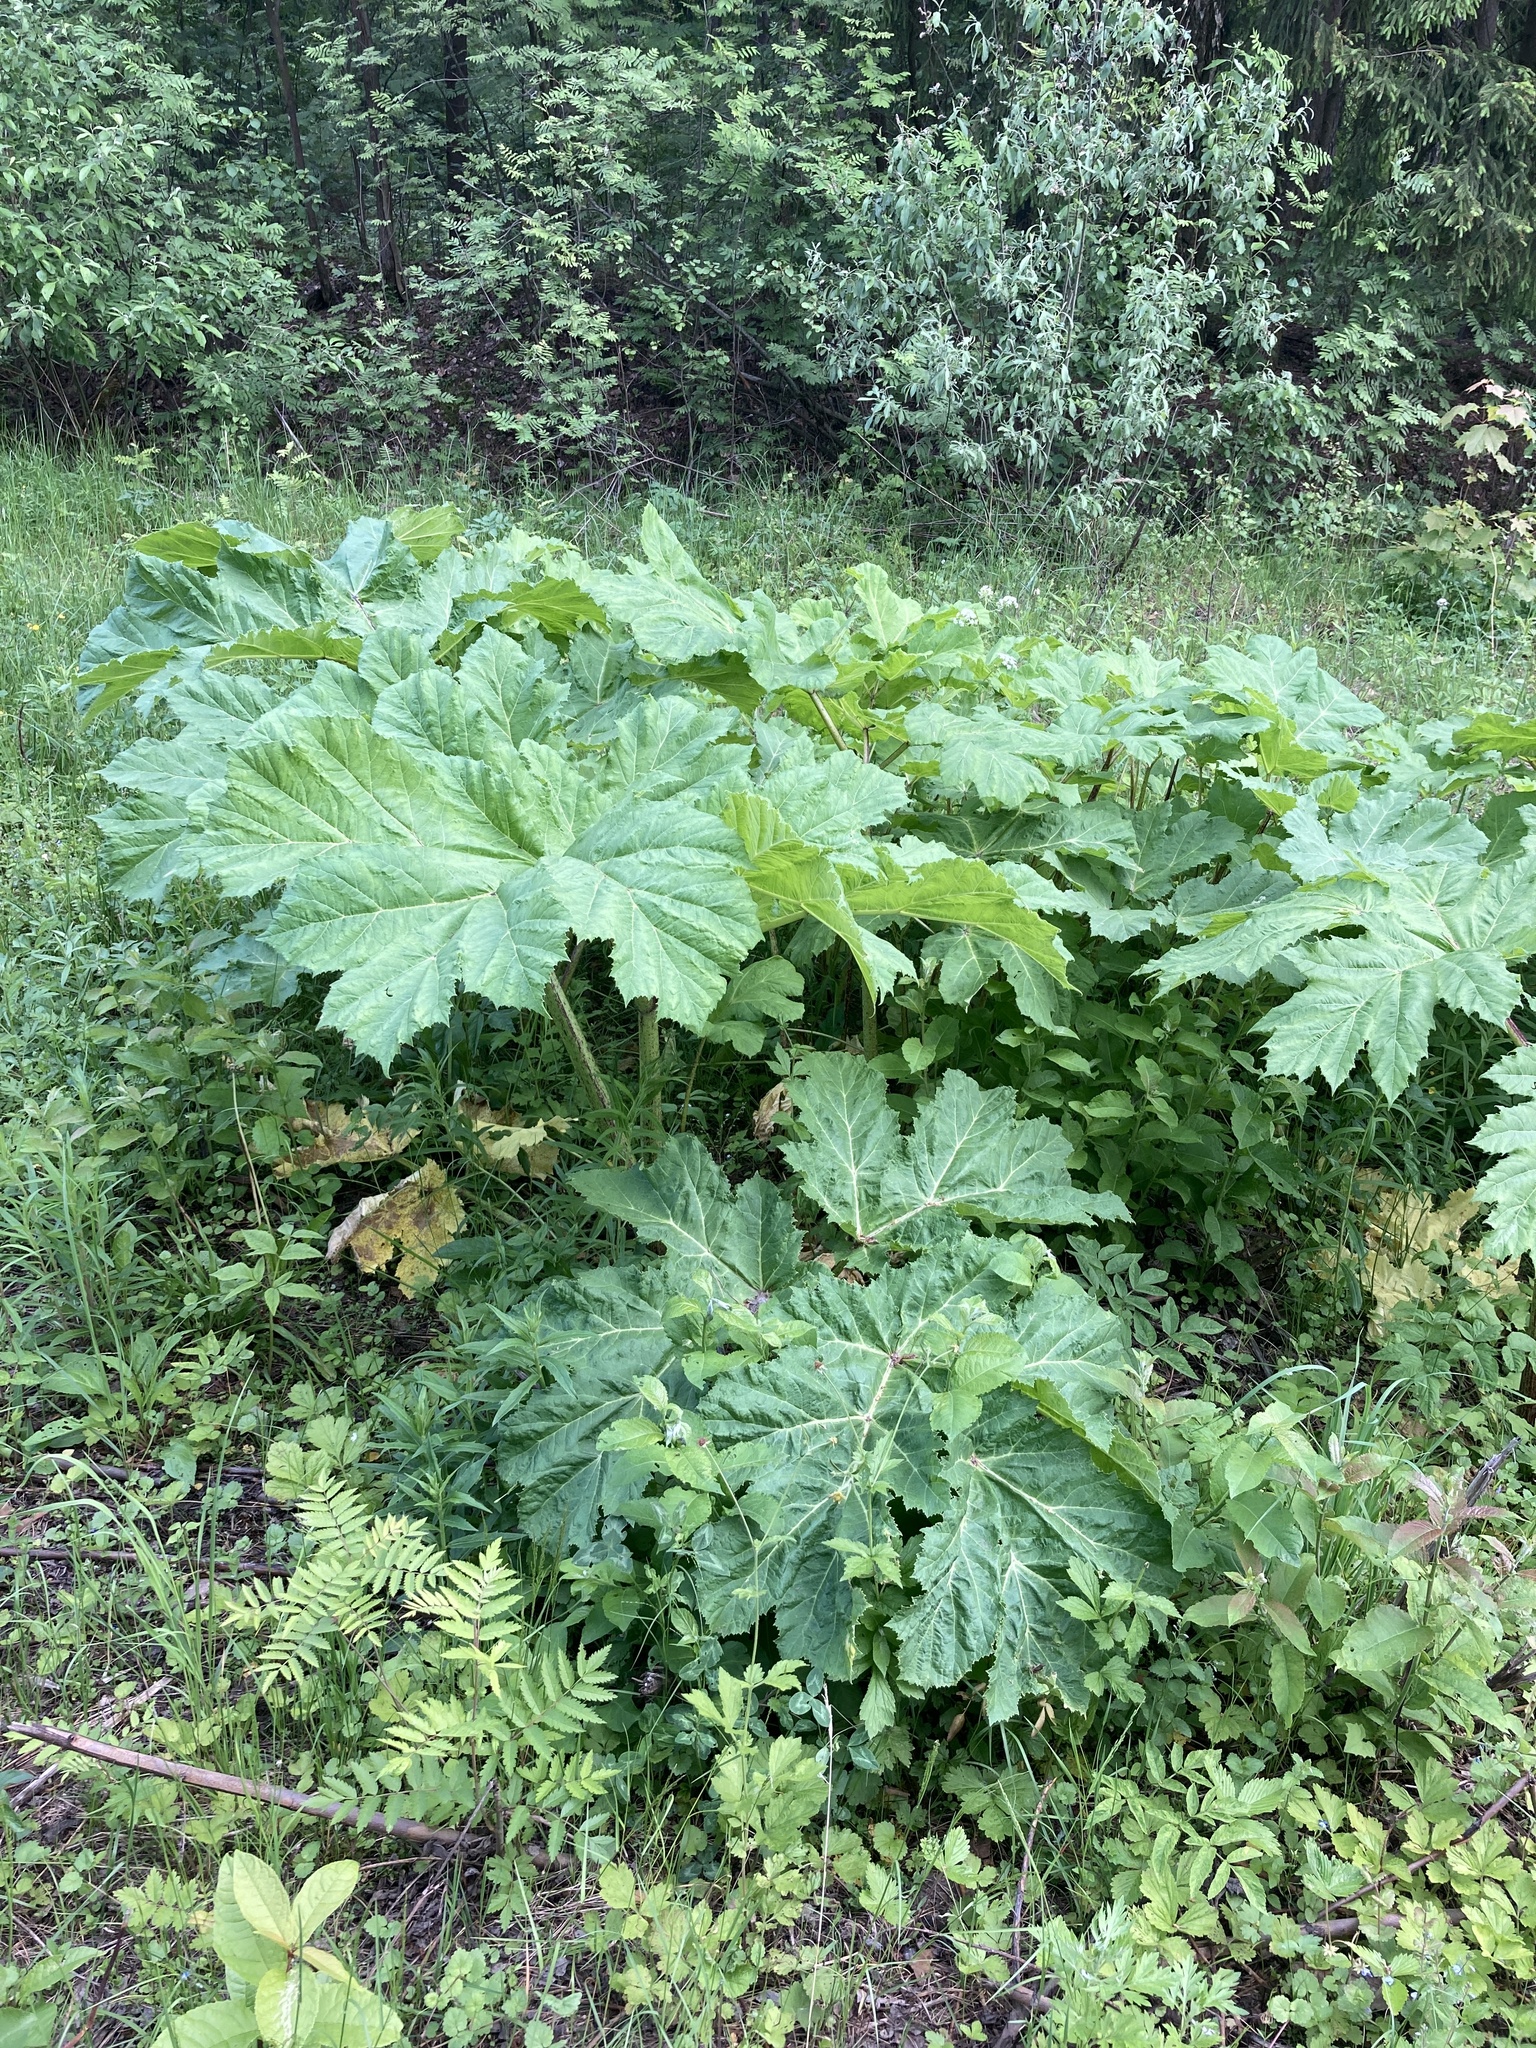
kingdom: Plantae
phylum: Tracheophyta
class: Magnoliopsida
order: Apiales
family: Apiaceae
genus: Heracleum
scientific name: Heracleum sosnowskyi
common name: Sosnowsky's hogweed
